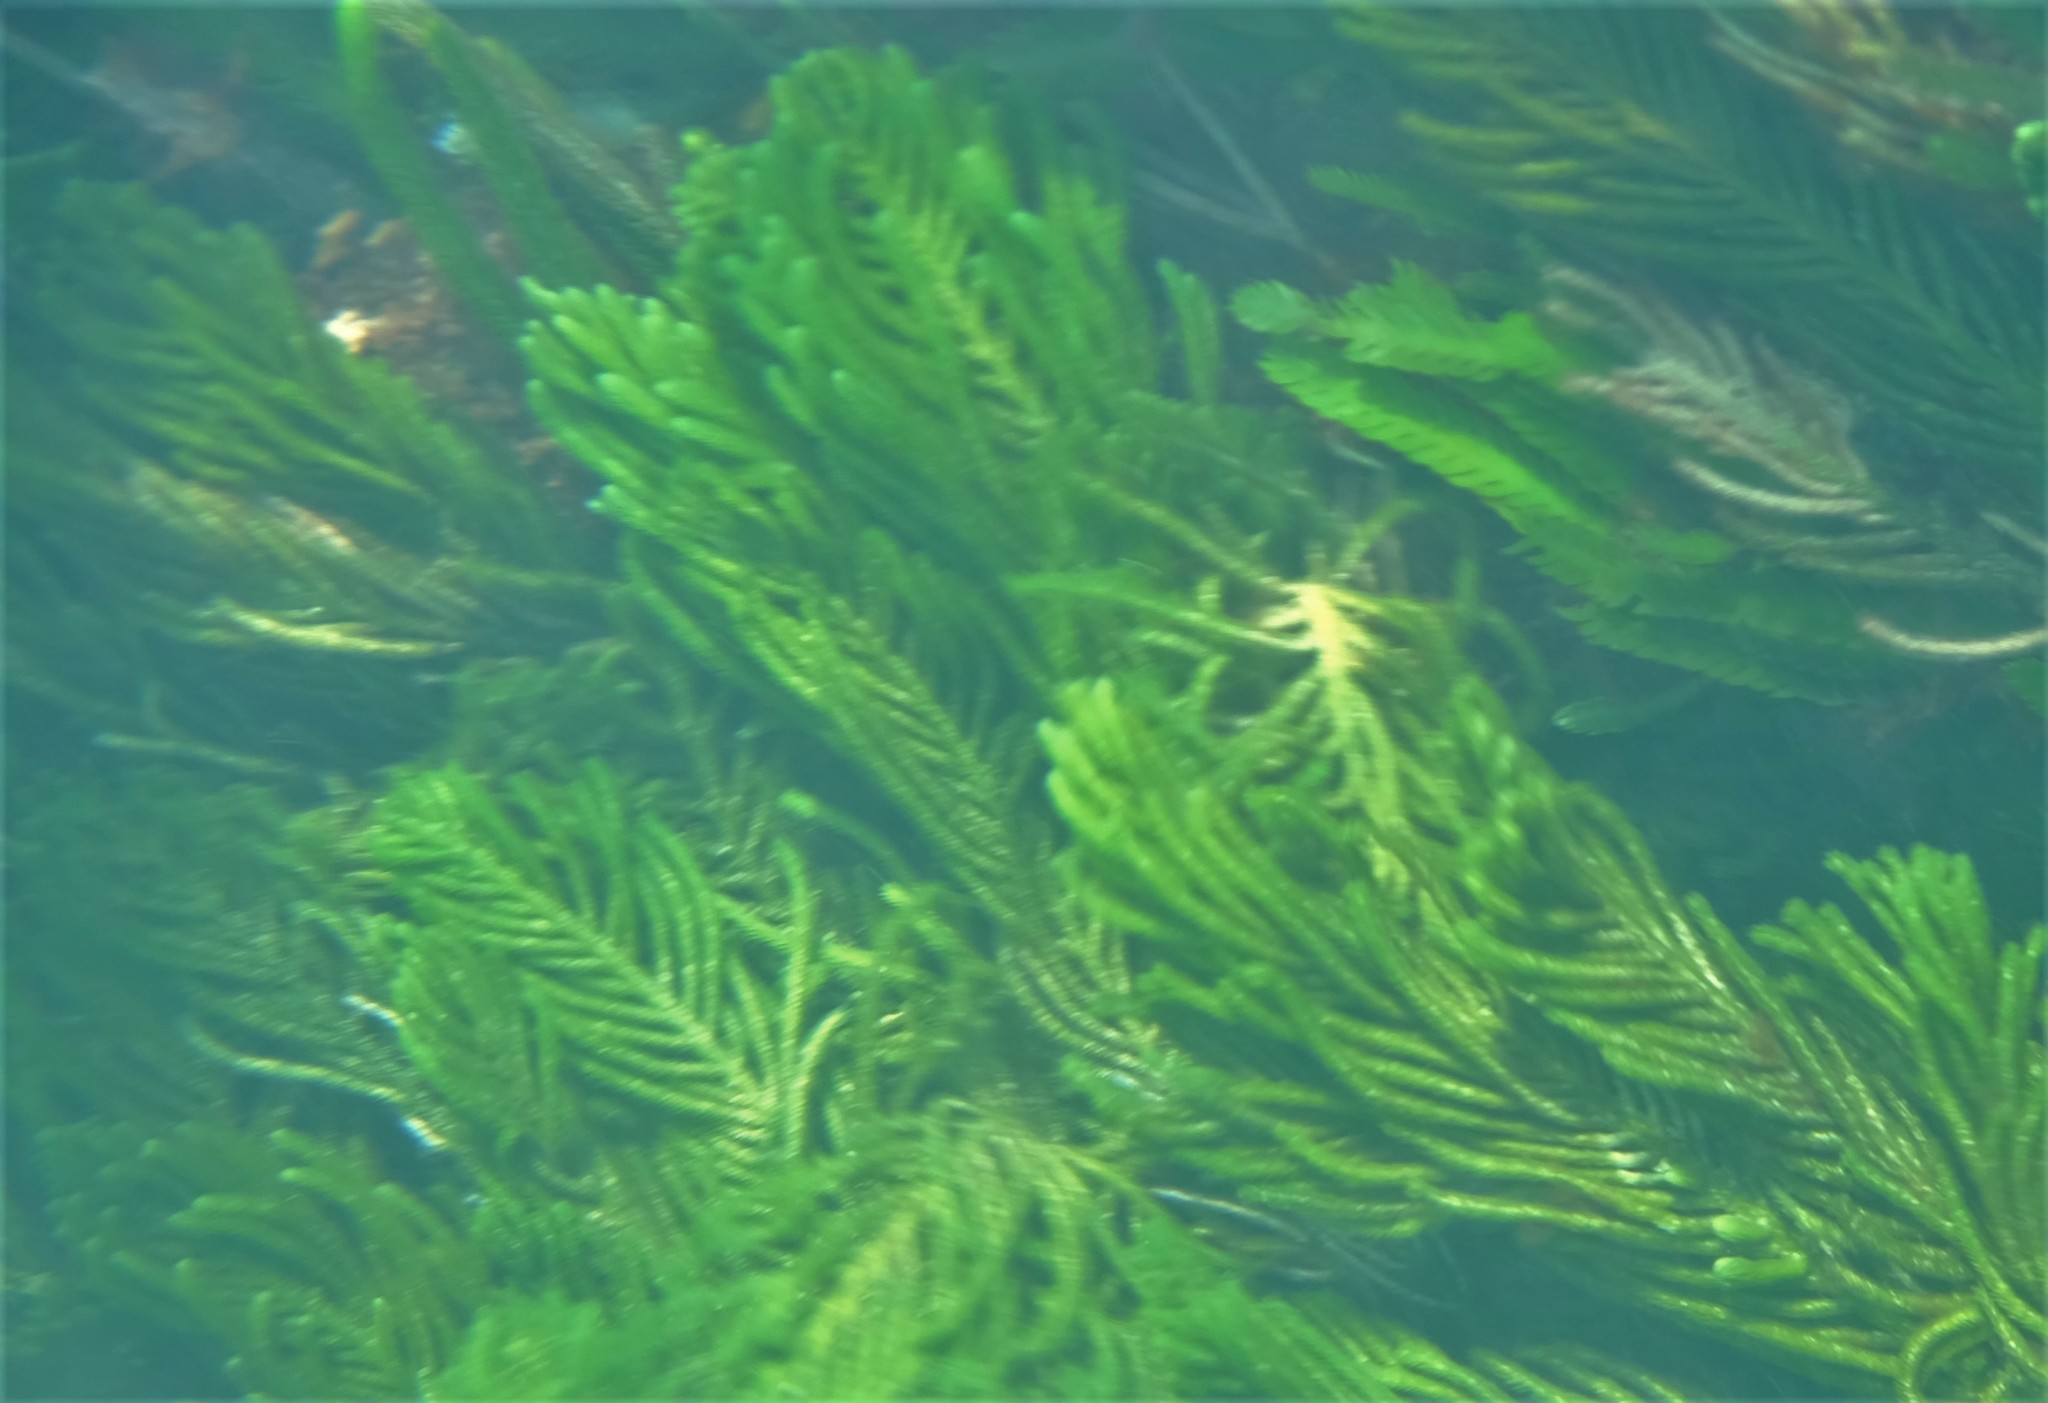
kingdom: Plantae
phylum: Chlorophyta
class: Ulvophyceae
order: Bryopsidales
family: Caulerpaceae
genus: Caulerpa
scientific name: Caulerpa
